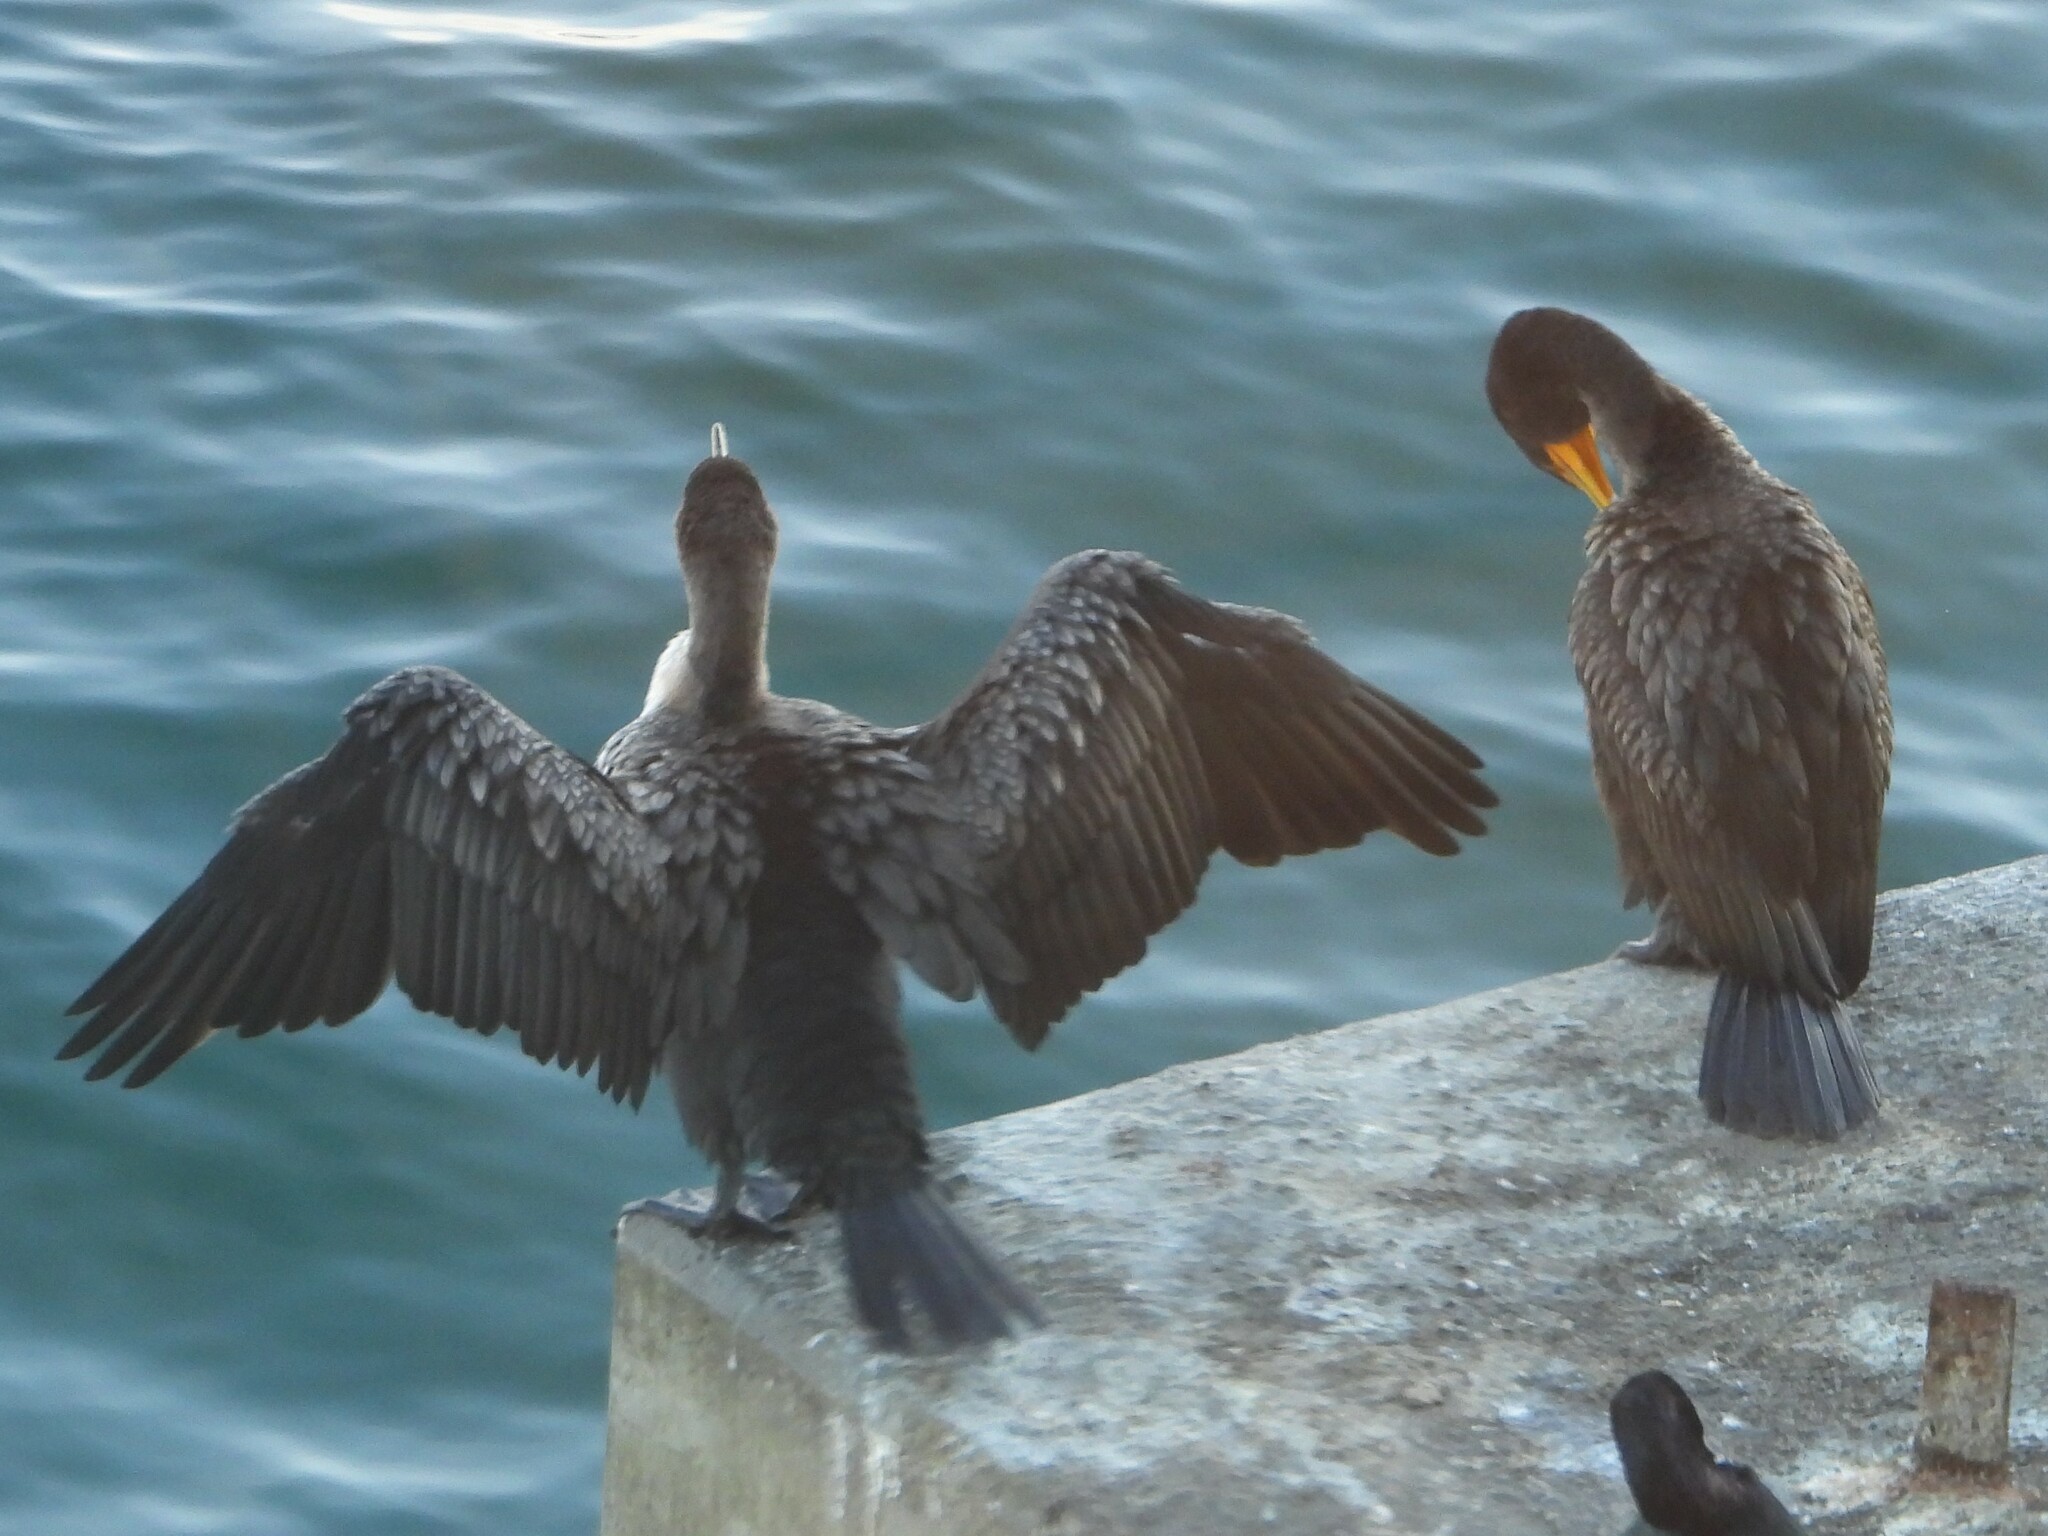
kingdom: Animalia
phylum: Chordata
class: Aves
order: Suliformes
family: Phalacrocoracidae
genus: Phalacrocorax
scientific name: Phalacrocorax auritus
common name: Double-crested cormorant
